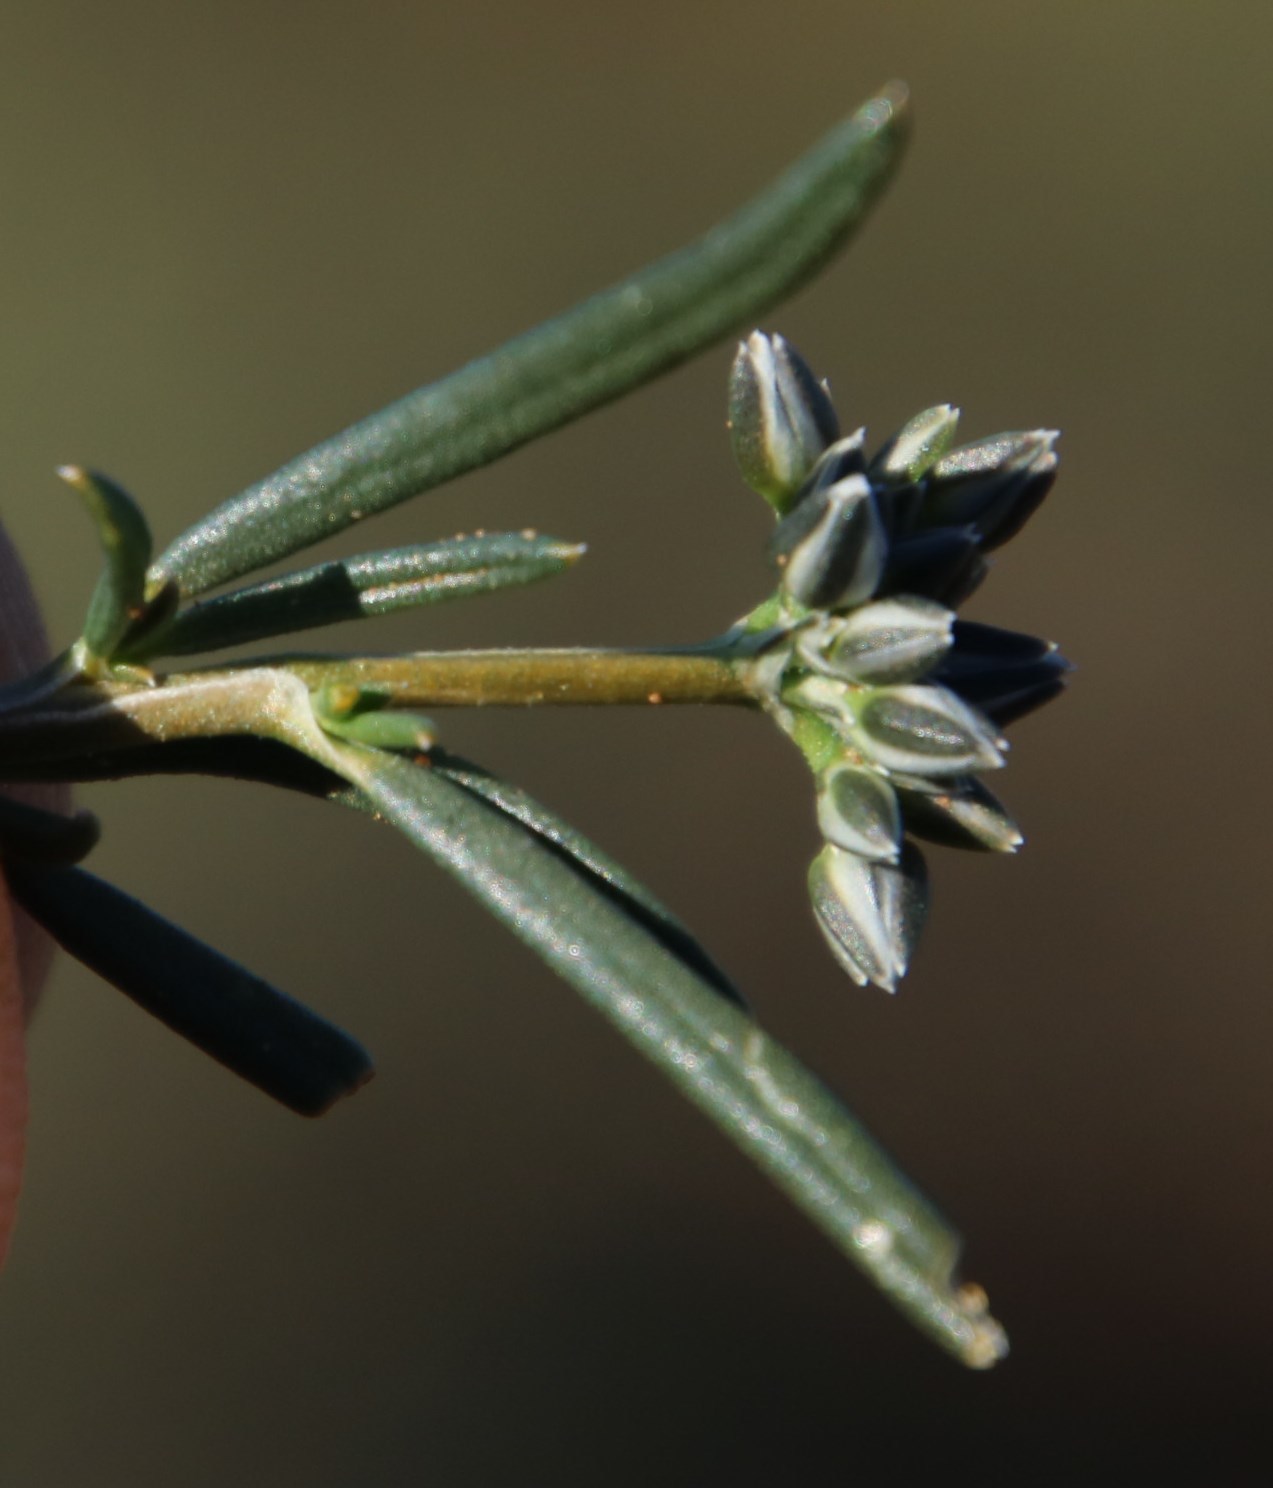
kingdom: Plantae
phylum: Tracheophyta
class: Magnoliopsida
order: Caryophyllales
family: Limeaceae
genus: Limeum
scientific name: Limeum aethiopicum
